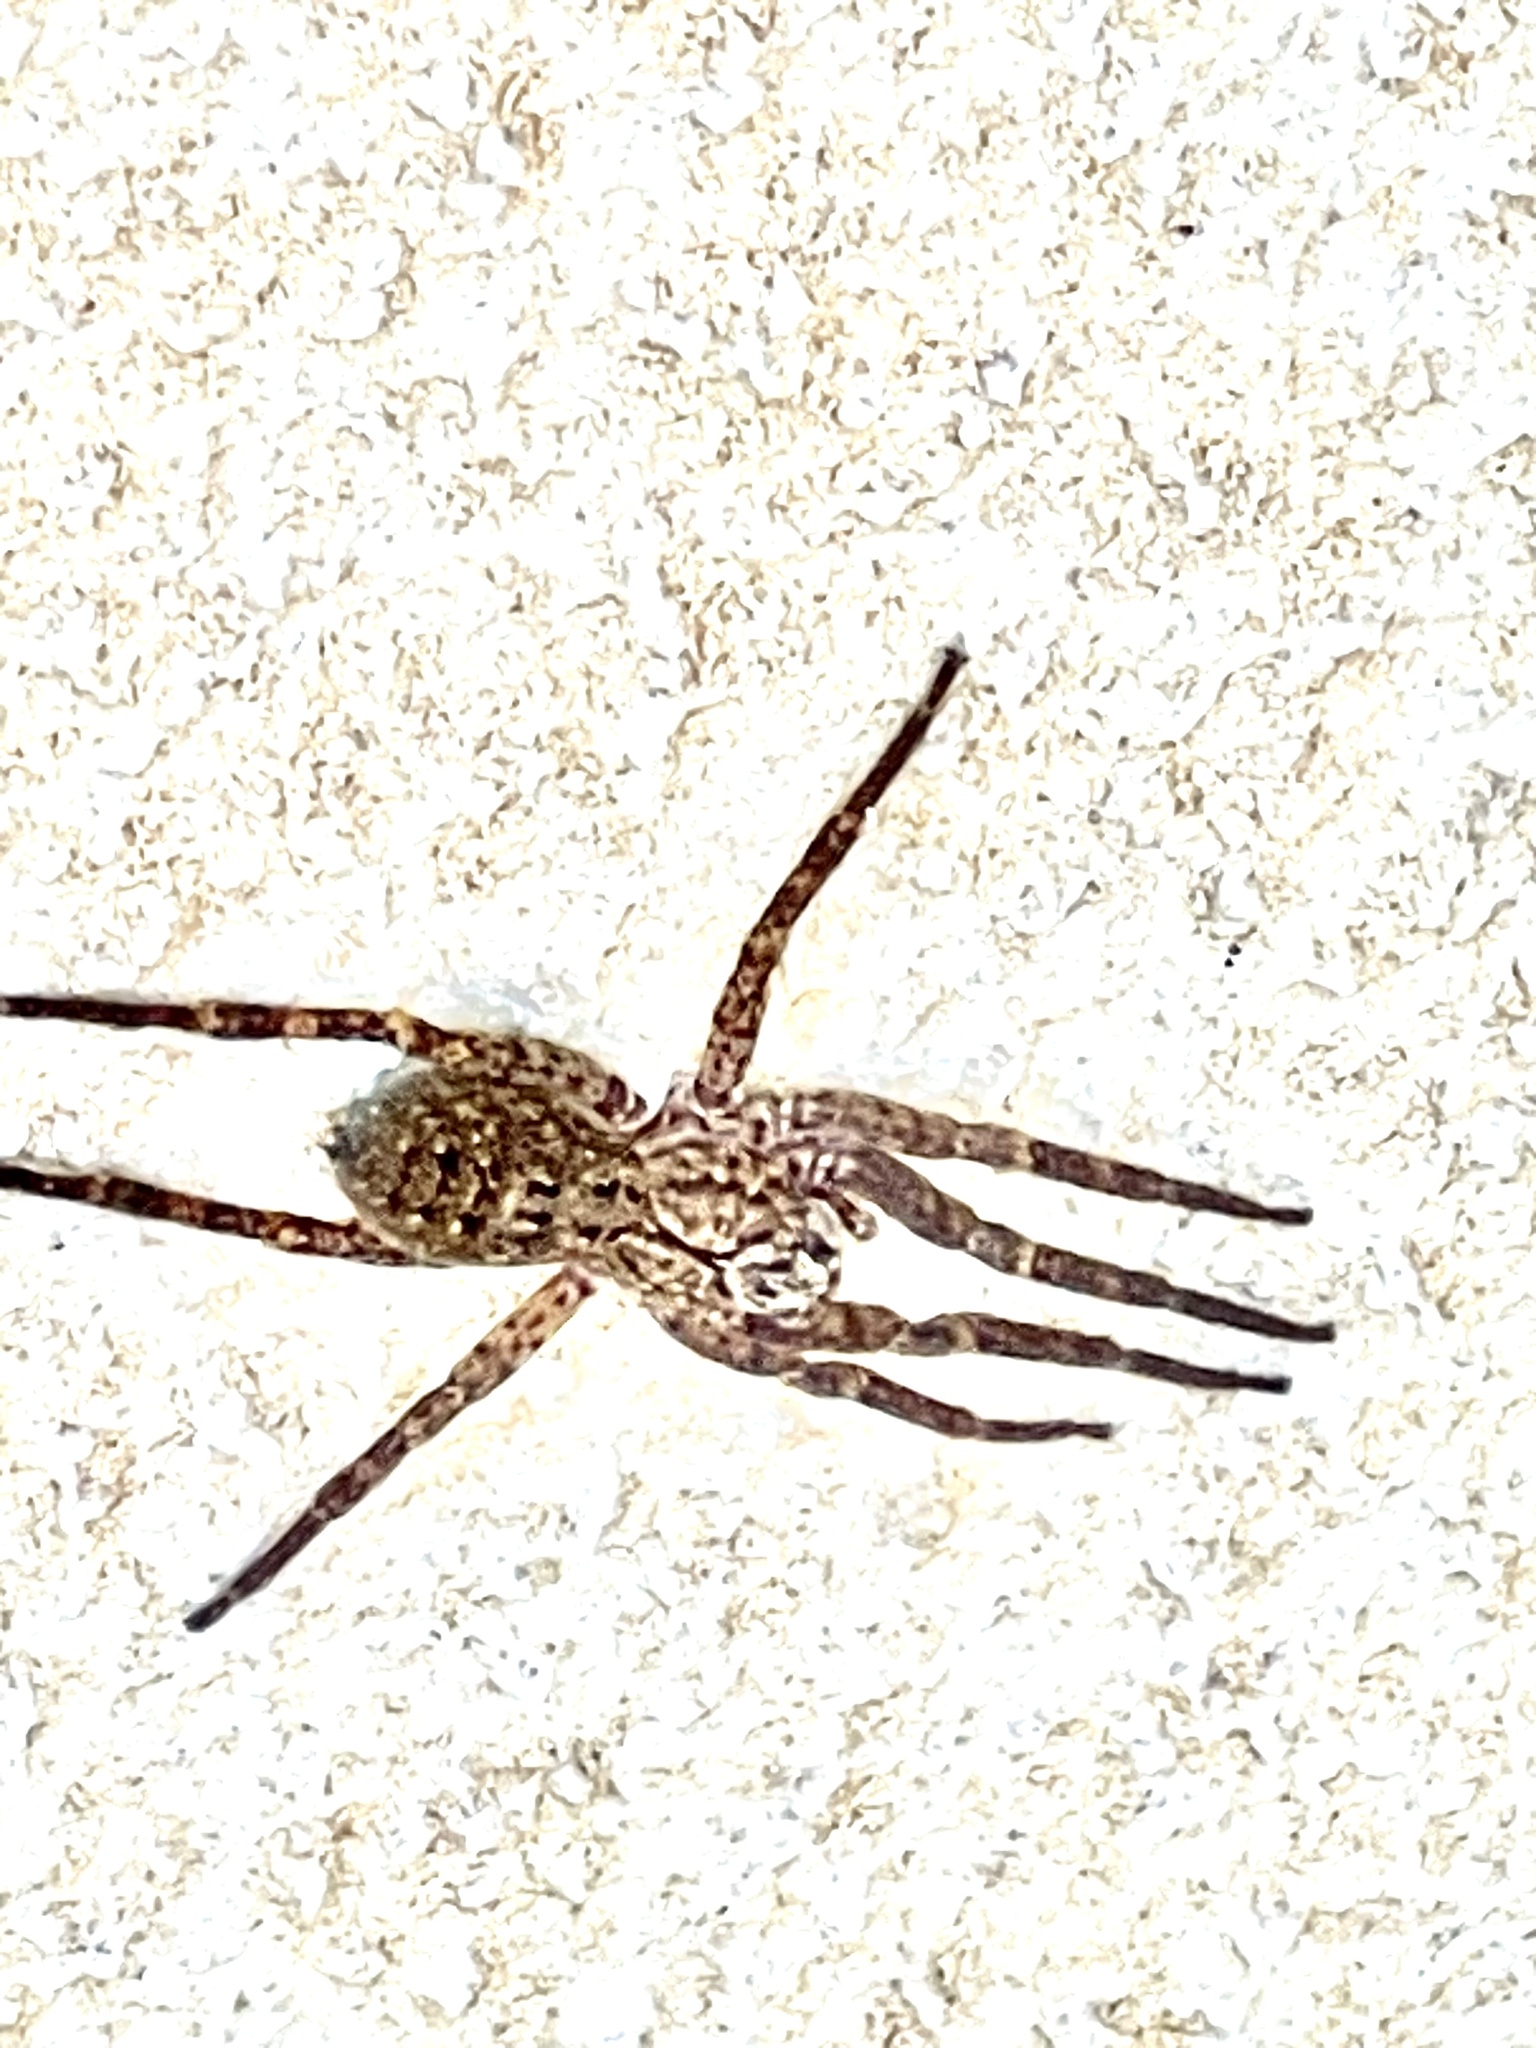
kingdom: Animalia
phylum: Arthropoda
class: Arachnida
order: Araneae
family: Zoropsidae
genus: Zoropsis
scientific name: Zoropsis rufipes
